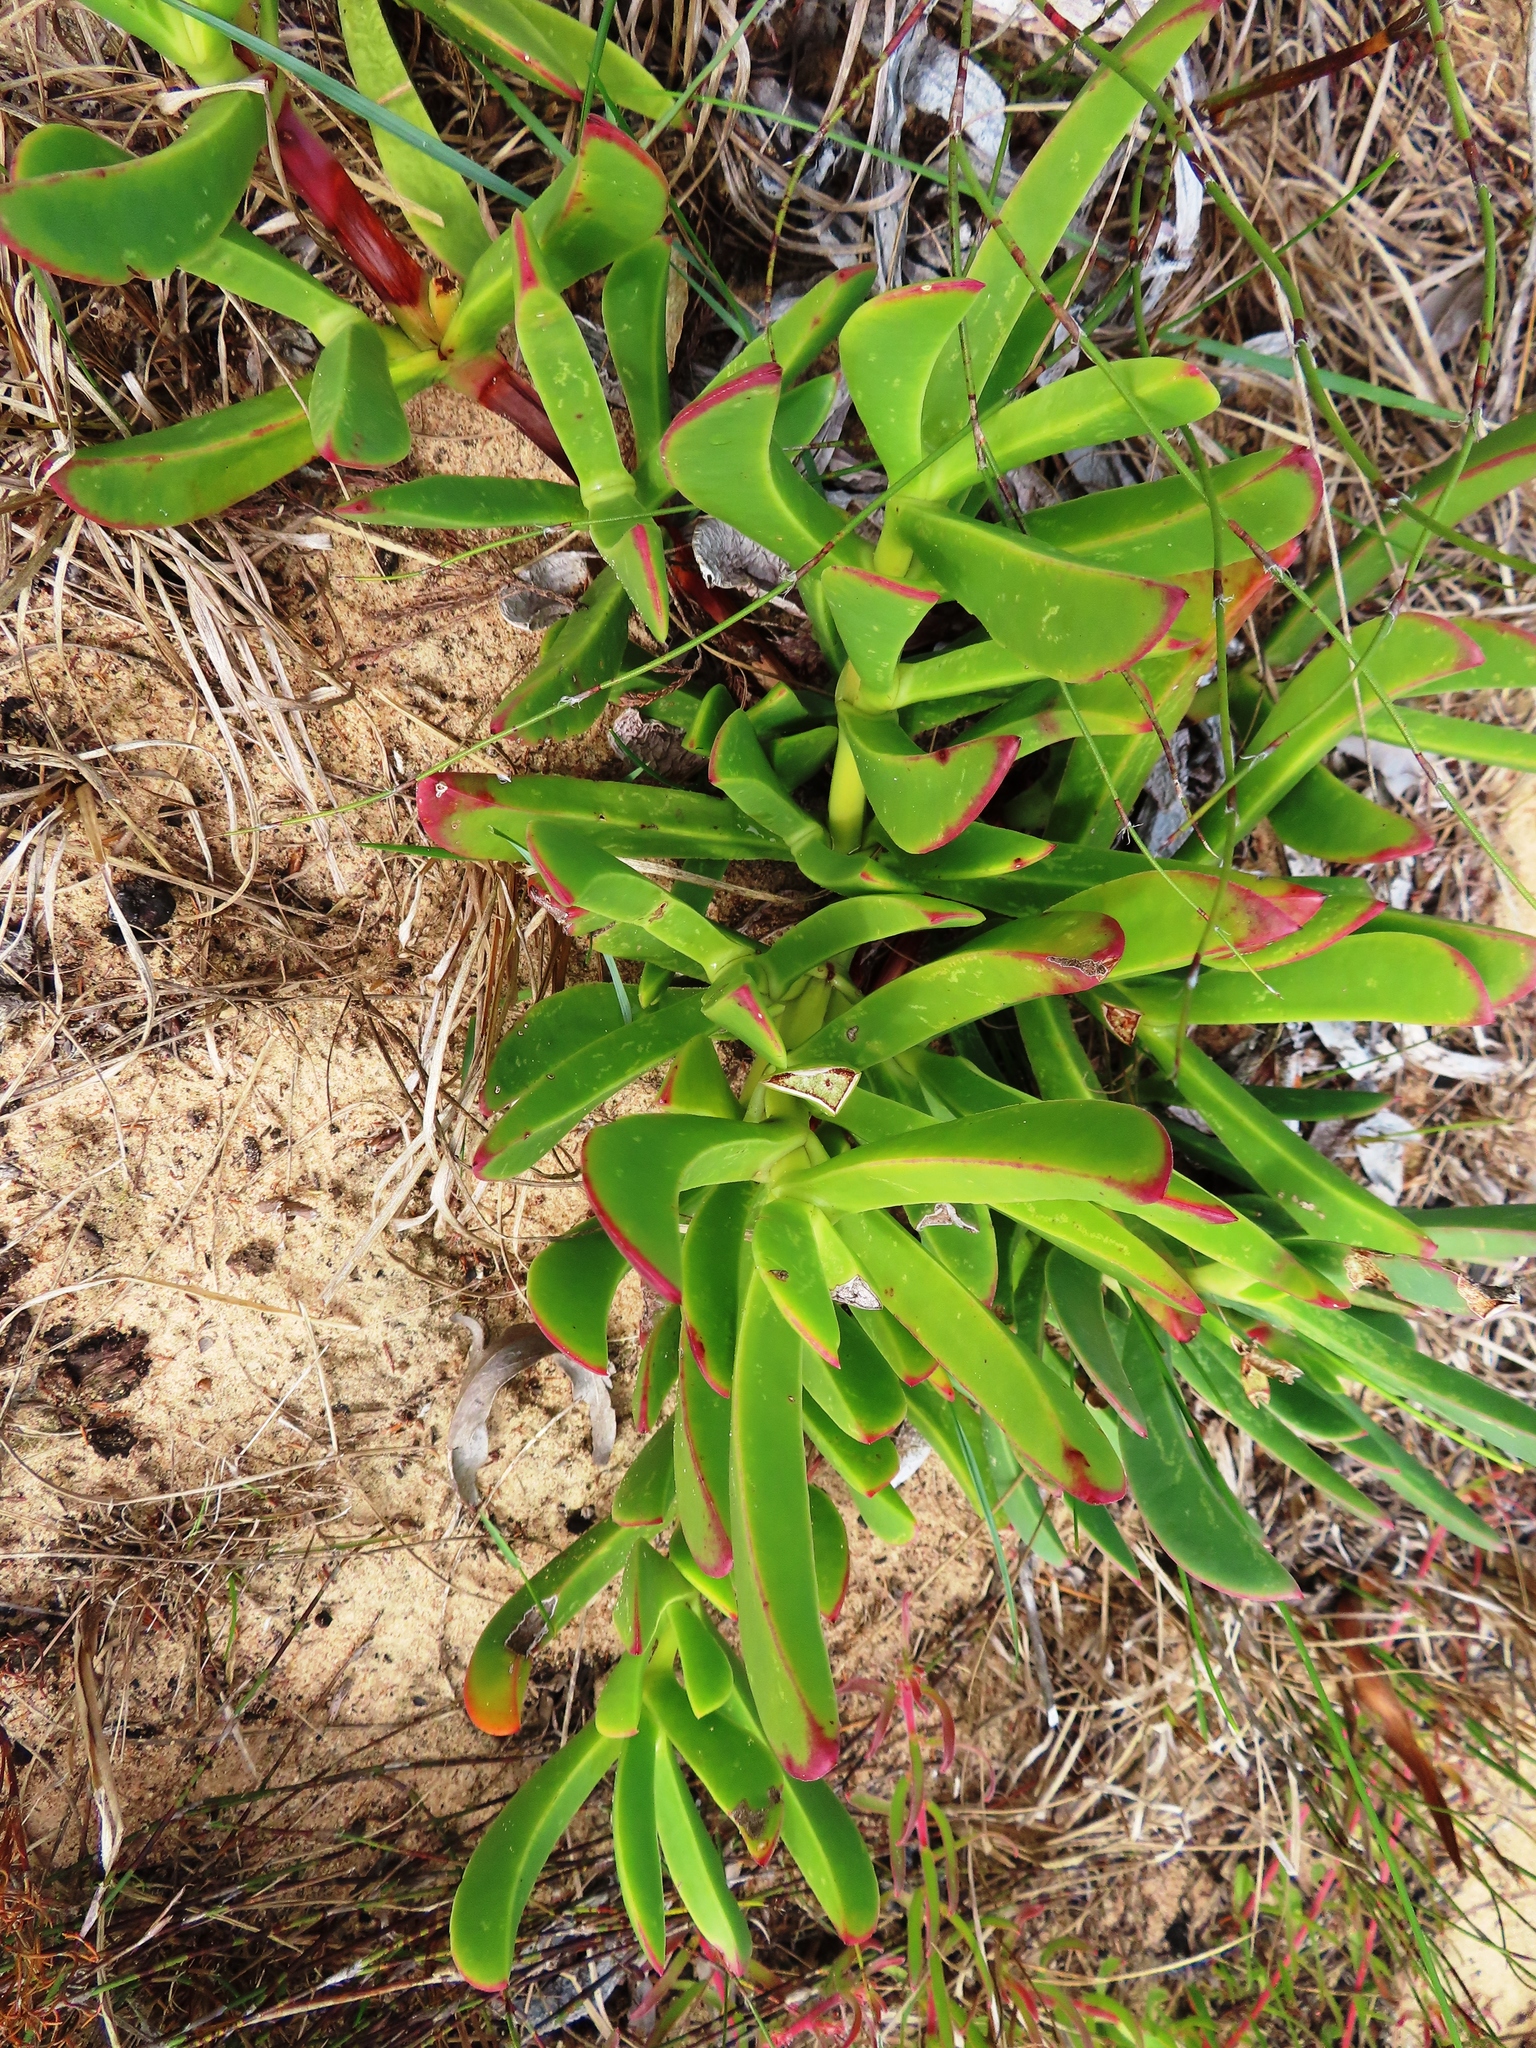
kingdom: Plantae
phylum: Tracheophyta
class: Magnoliopsida
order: Caryophyllales
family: Aizoaceae
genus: Carpobrotus
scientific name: Carpobrotus edulis
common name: Hottentot-fig
